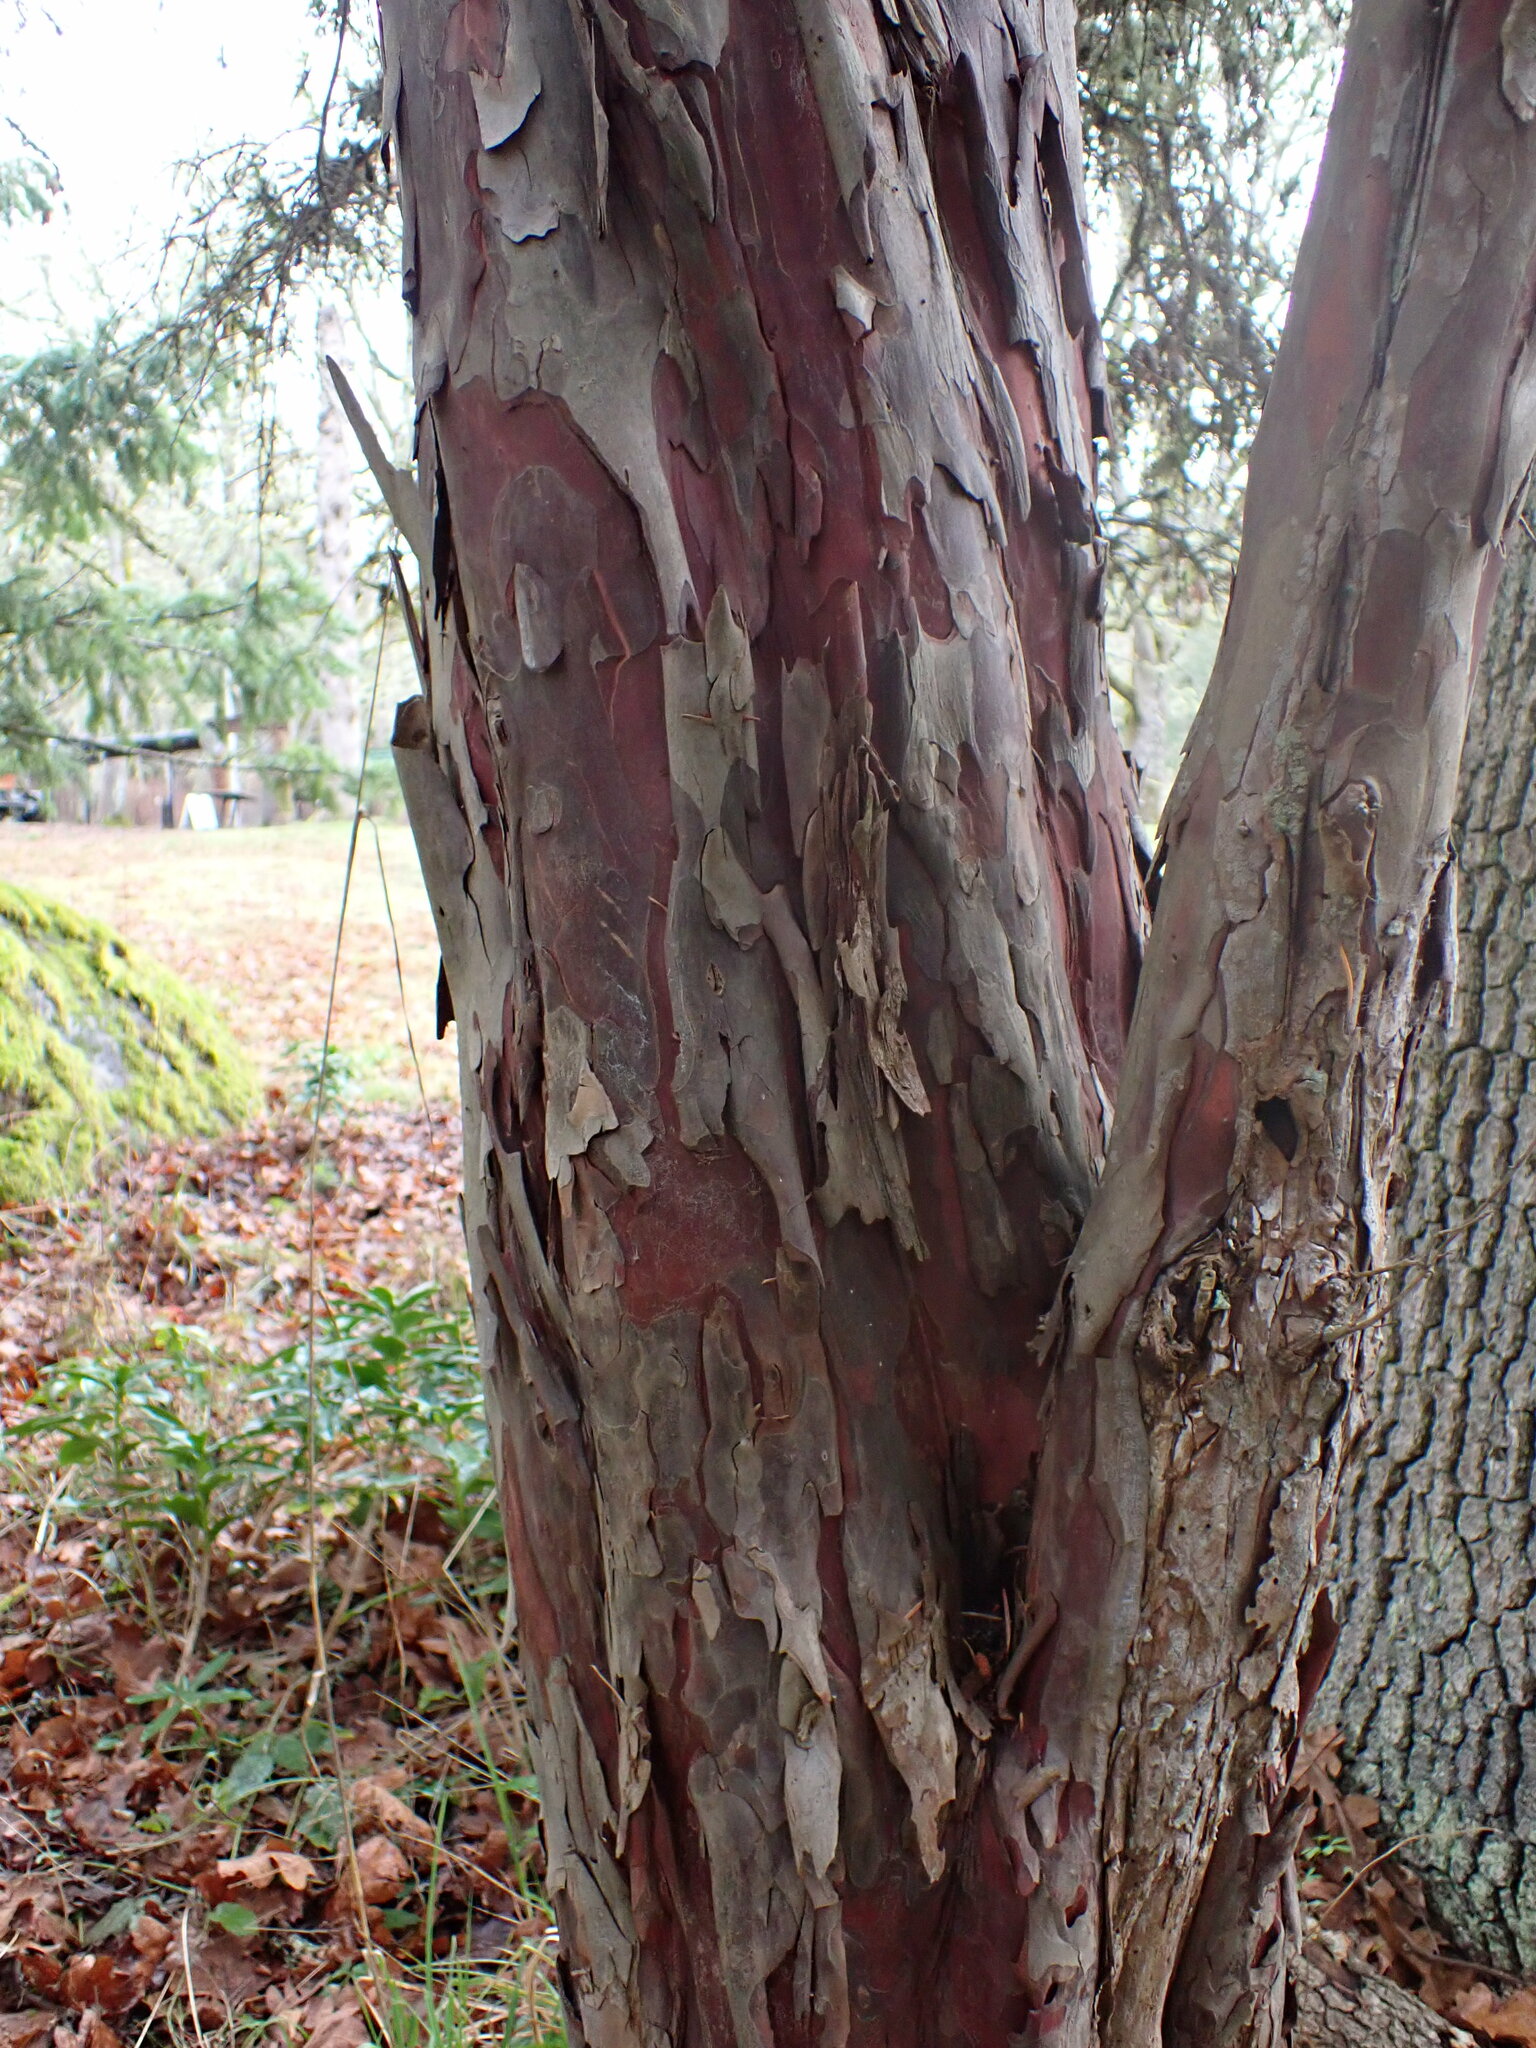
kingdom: Plantae
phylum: Tracheophyta
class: Pinopsida
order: Pinales
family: Taxaceae
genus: Taxus
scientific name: Taxus brevifolia
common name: Pacific yew
